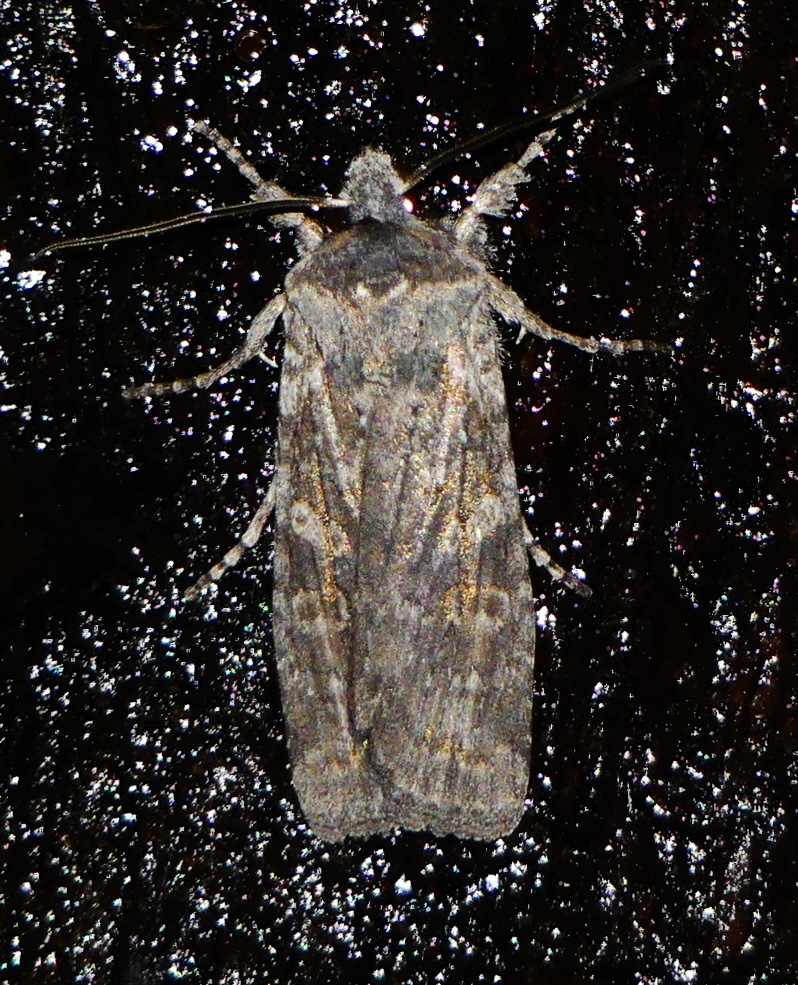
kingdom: Animalia
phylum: Arthropoda
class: Insecta
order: Lepidoptera
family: Noctuidae
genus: Lithophane
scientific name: Lithophane laticinerea
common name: Broad ashen pinion
